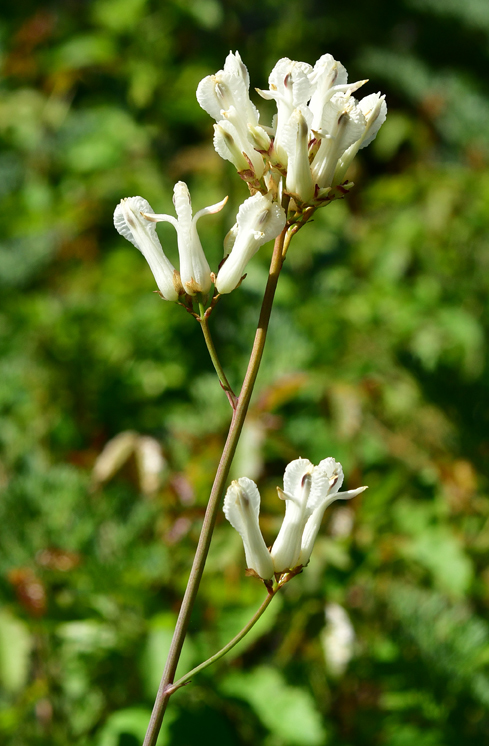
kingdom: Plantae
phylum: Tracheophyta
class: Magnoliopsida
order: Ranunculales
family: Papaveraceae
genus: Ehrendorferia
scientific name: Ehrendorferia ochroleuca
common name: White eardrops
